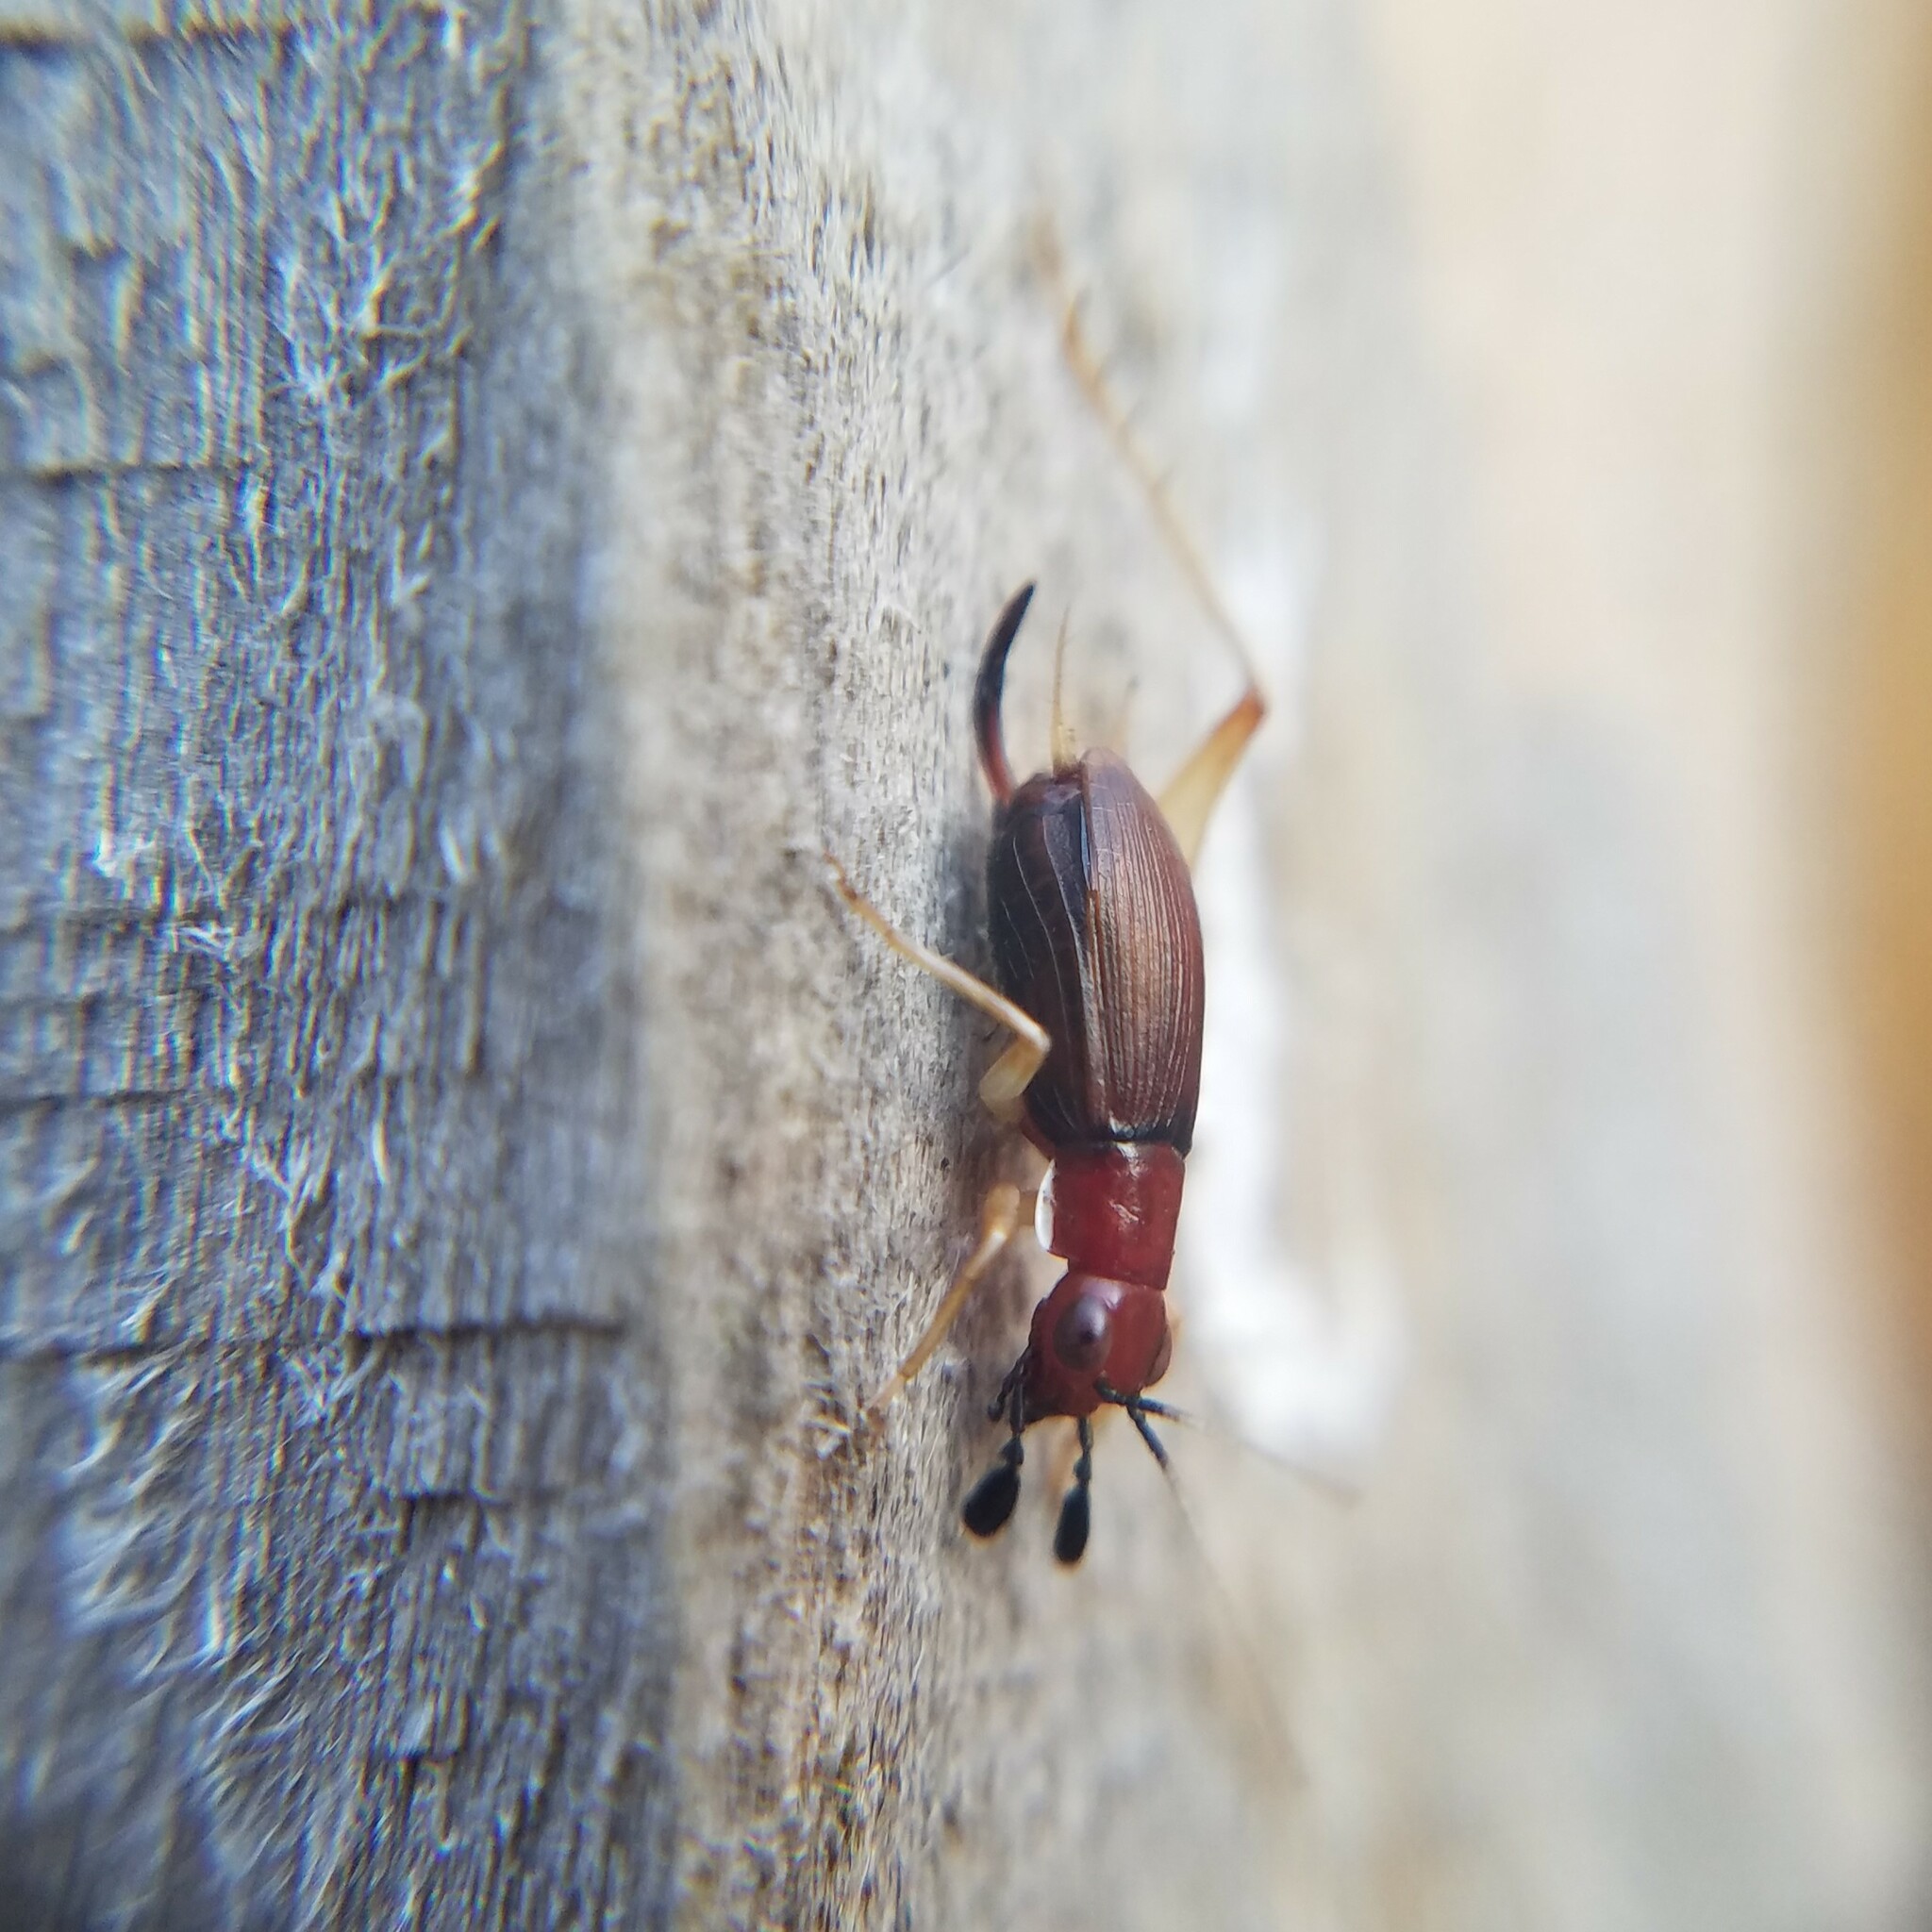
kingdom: Animalia
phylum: Arthropoda
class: Insecta
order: Orthoptera
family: Trigonidiidae
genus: Phyllopalpus
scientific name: Phyllopalpus pulchellus
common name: Handsome trig
